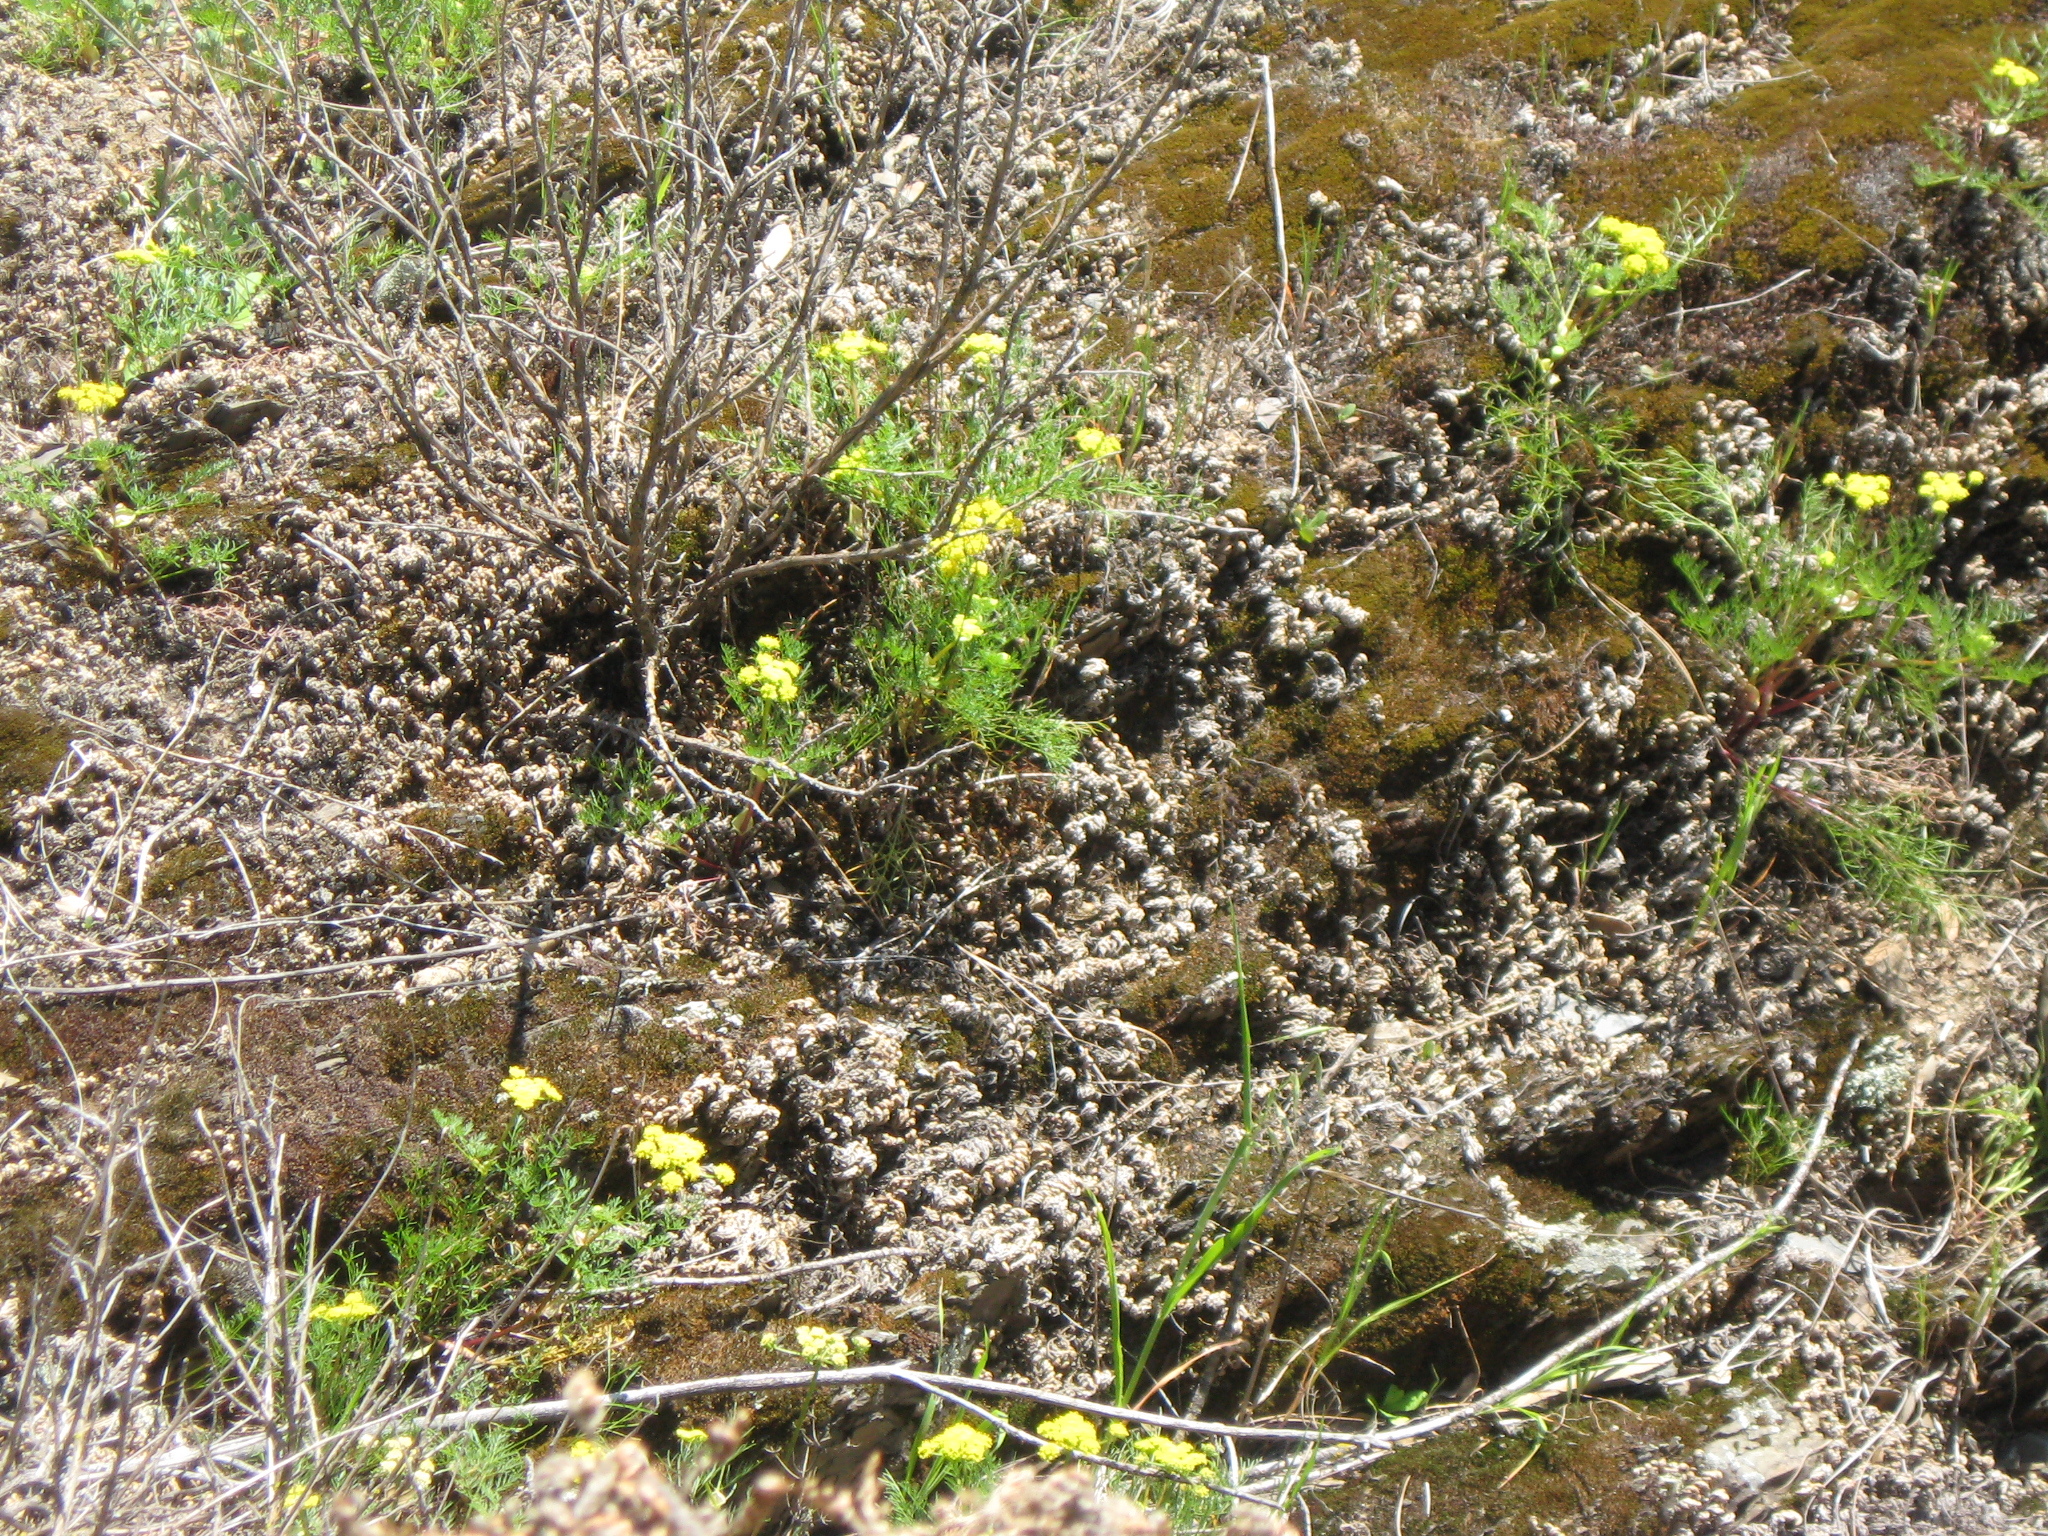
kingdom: Plantae
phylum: Tracheophyta
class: Magnoliopsida
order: Apiales
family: Apiaceae
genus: Lomatium
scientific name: Lomatium utriculatum
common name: Fine-leaf desert-parsley
